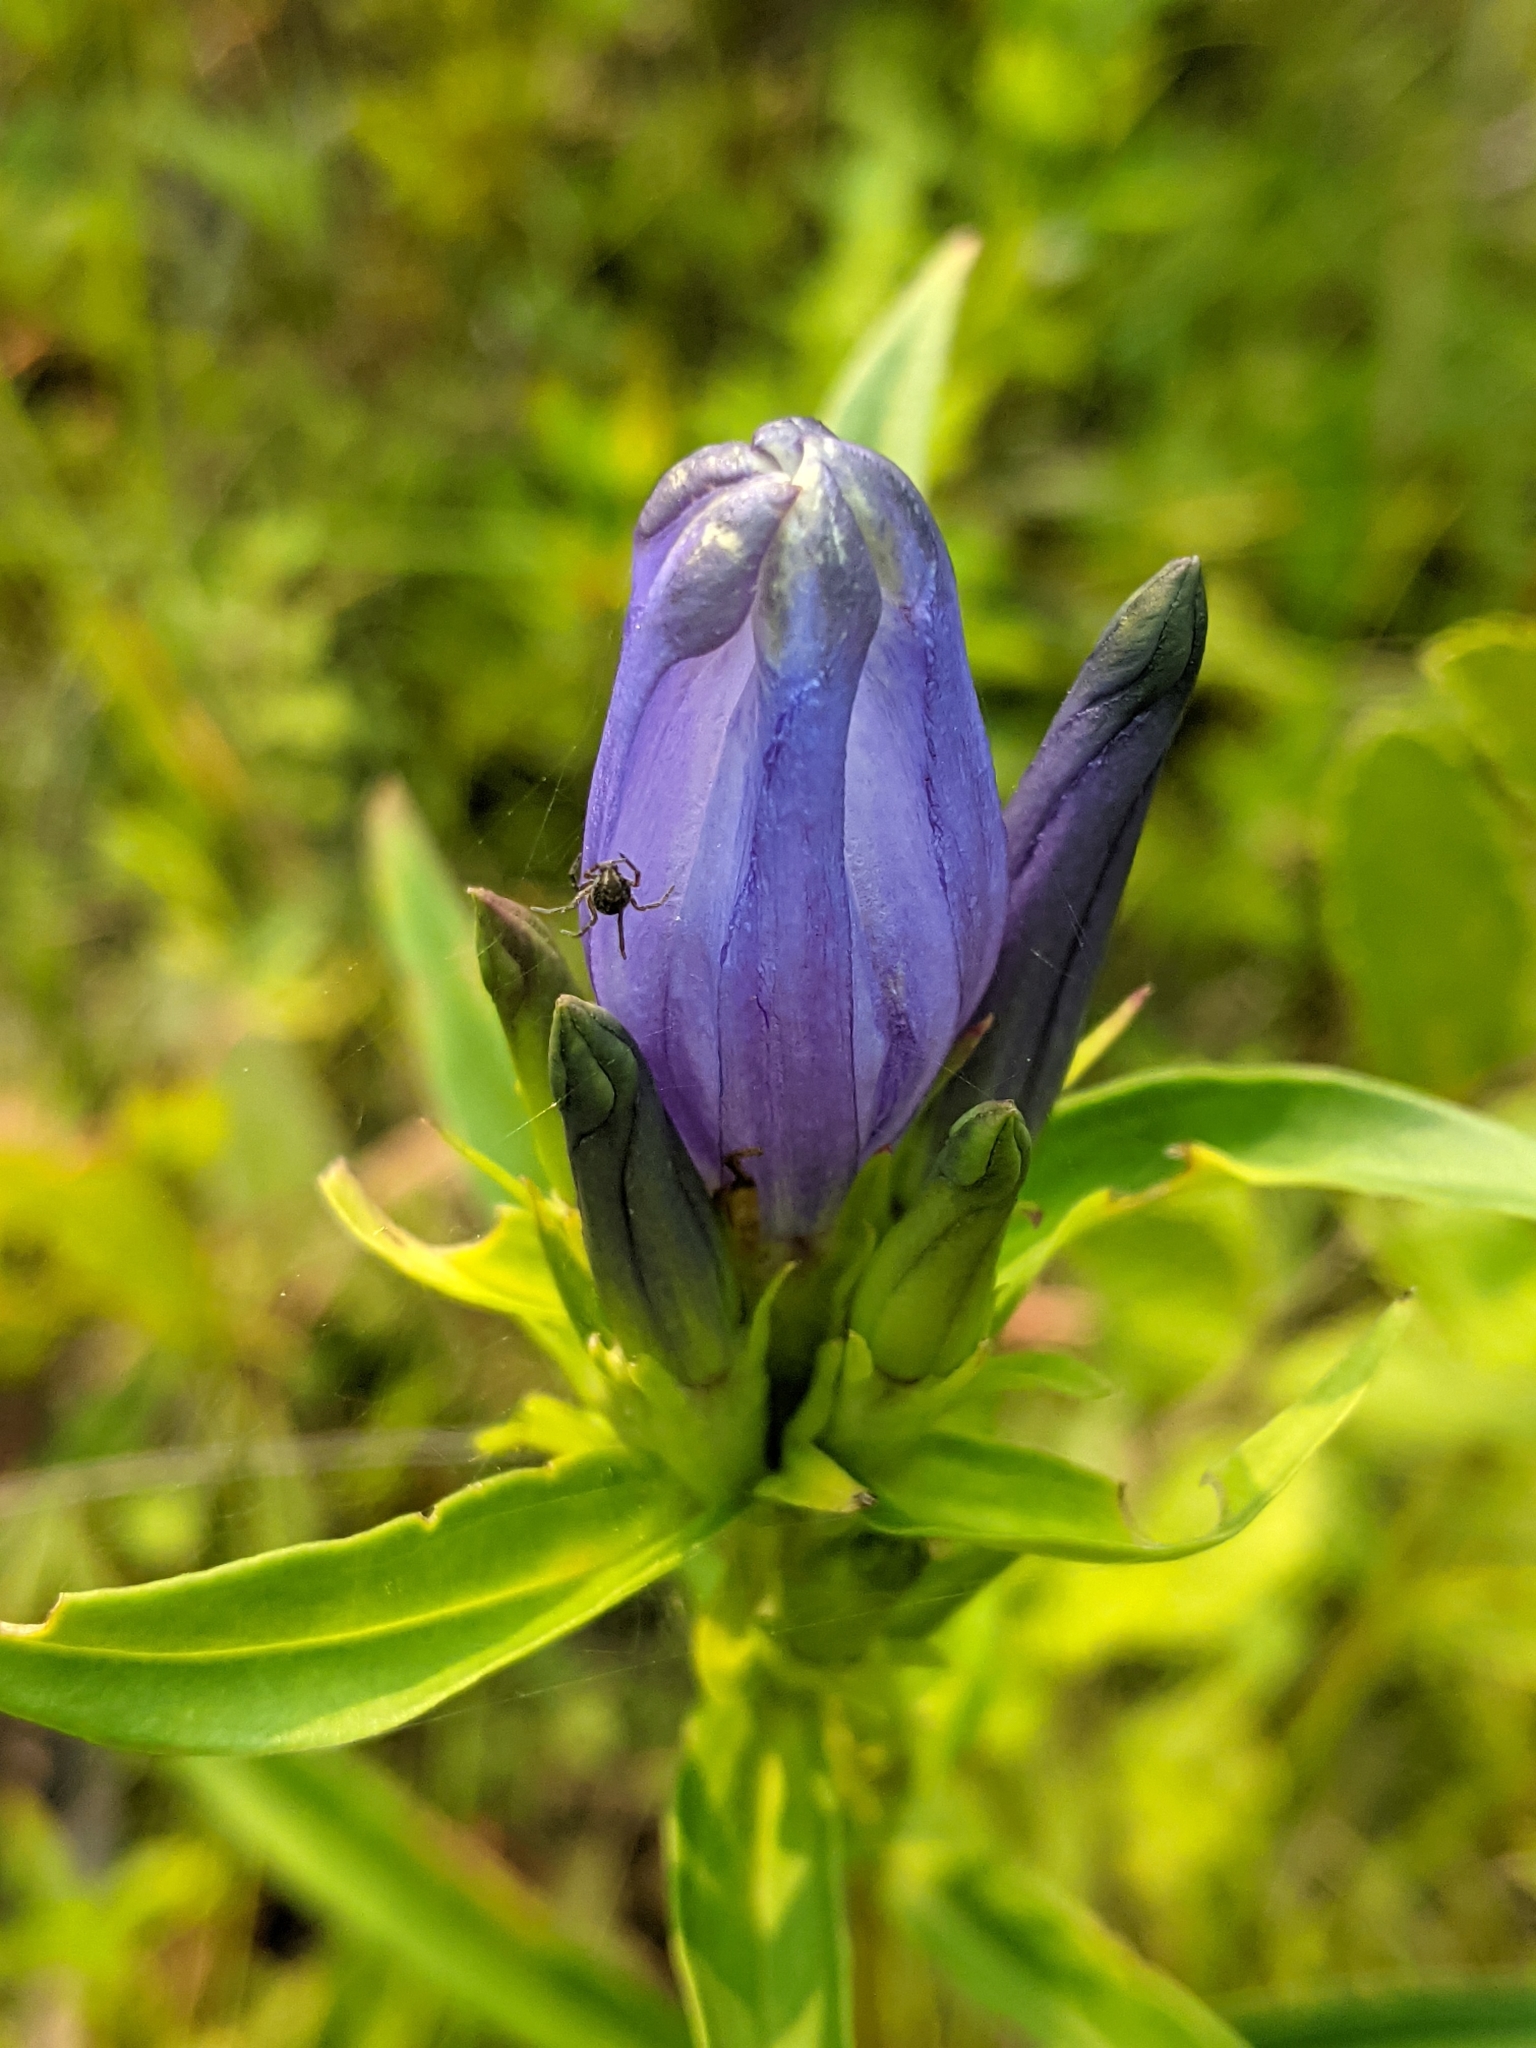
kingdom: Plantae
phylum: Tracheophyta
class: Magnoliopsida
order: Gentianales
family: Gentianaceae
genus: Gentiana
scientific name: Gentiana linearis
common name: Bastard gentian
